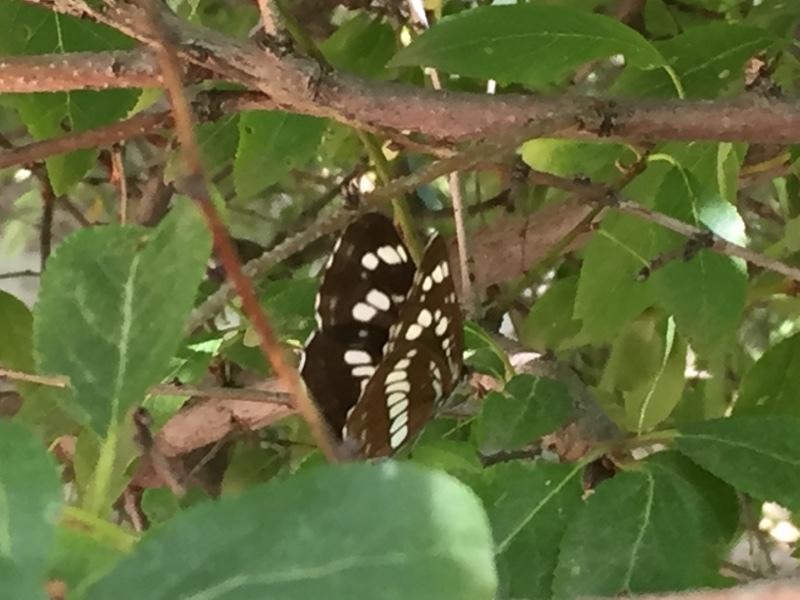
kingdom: Animalia
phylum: Arthropoda
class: Insecta
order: Lepidoptera
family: Nymphalidae
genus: Neptis
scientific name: Neptis rivularis
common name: Hungarian glider
